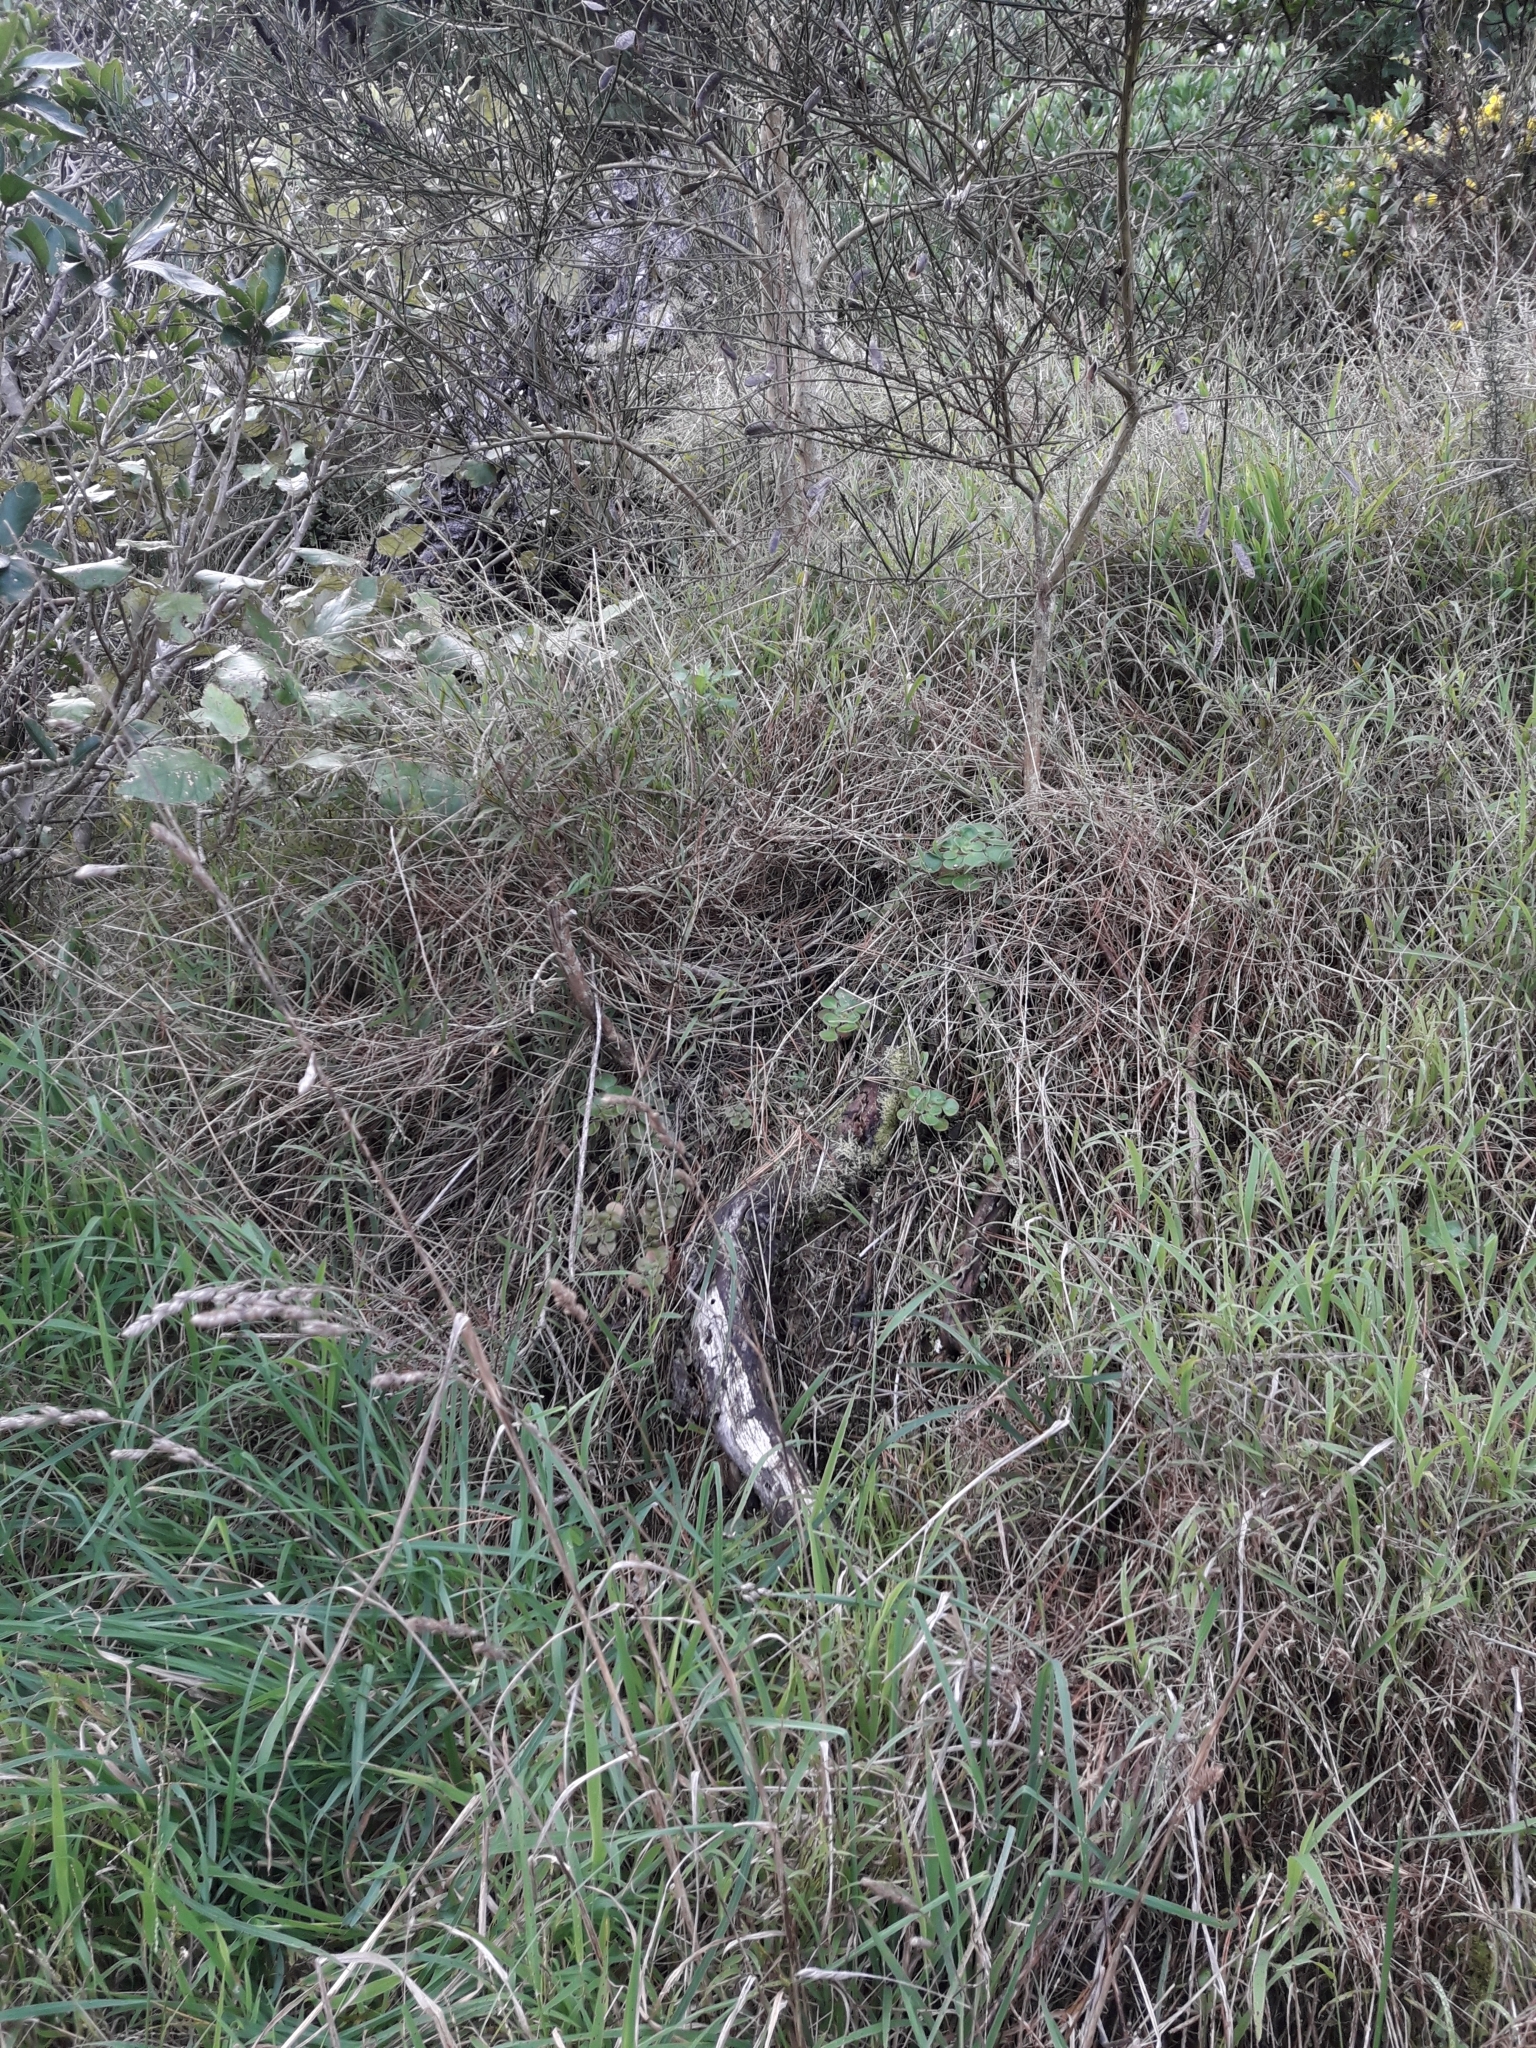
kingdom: Plantae
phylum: Tracheophyta
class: Magnoliopsida
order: Saxifragales
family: Crassulaceae
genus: Aichryson
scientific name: Aichryson laxum
